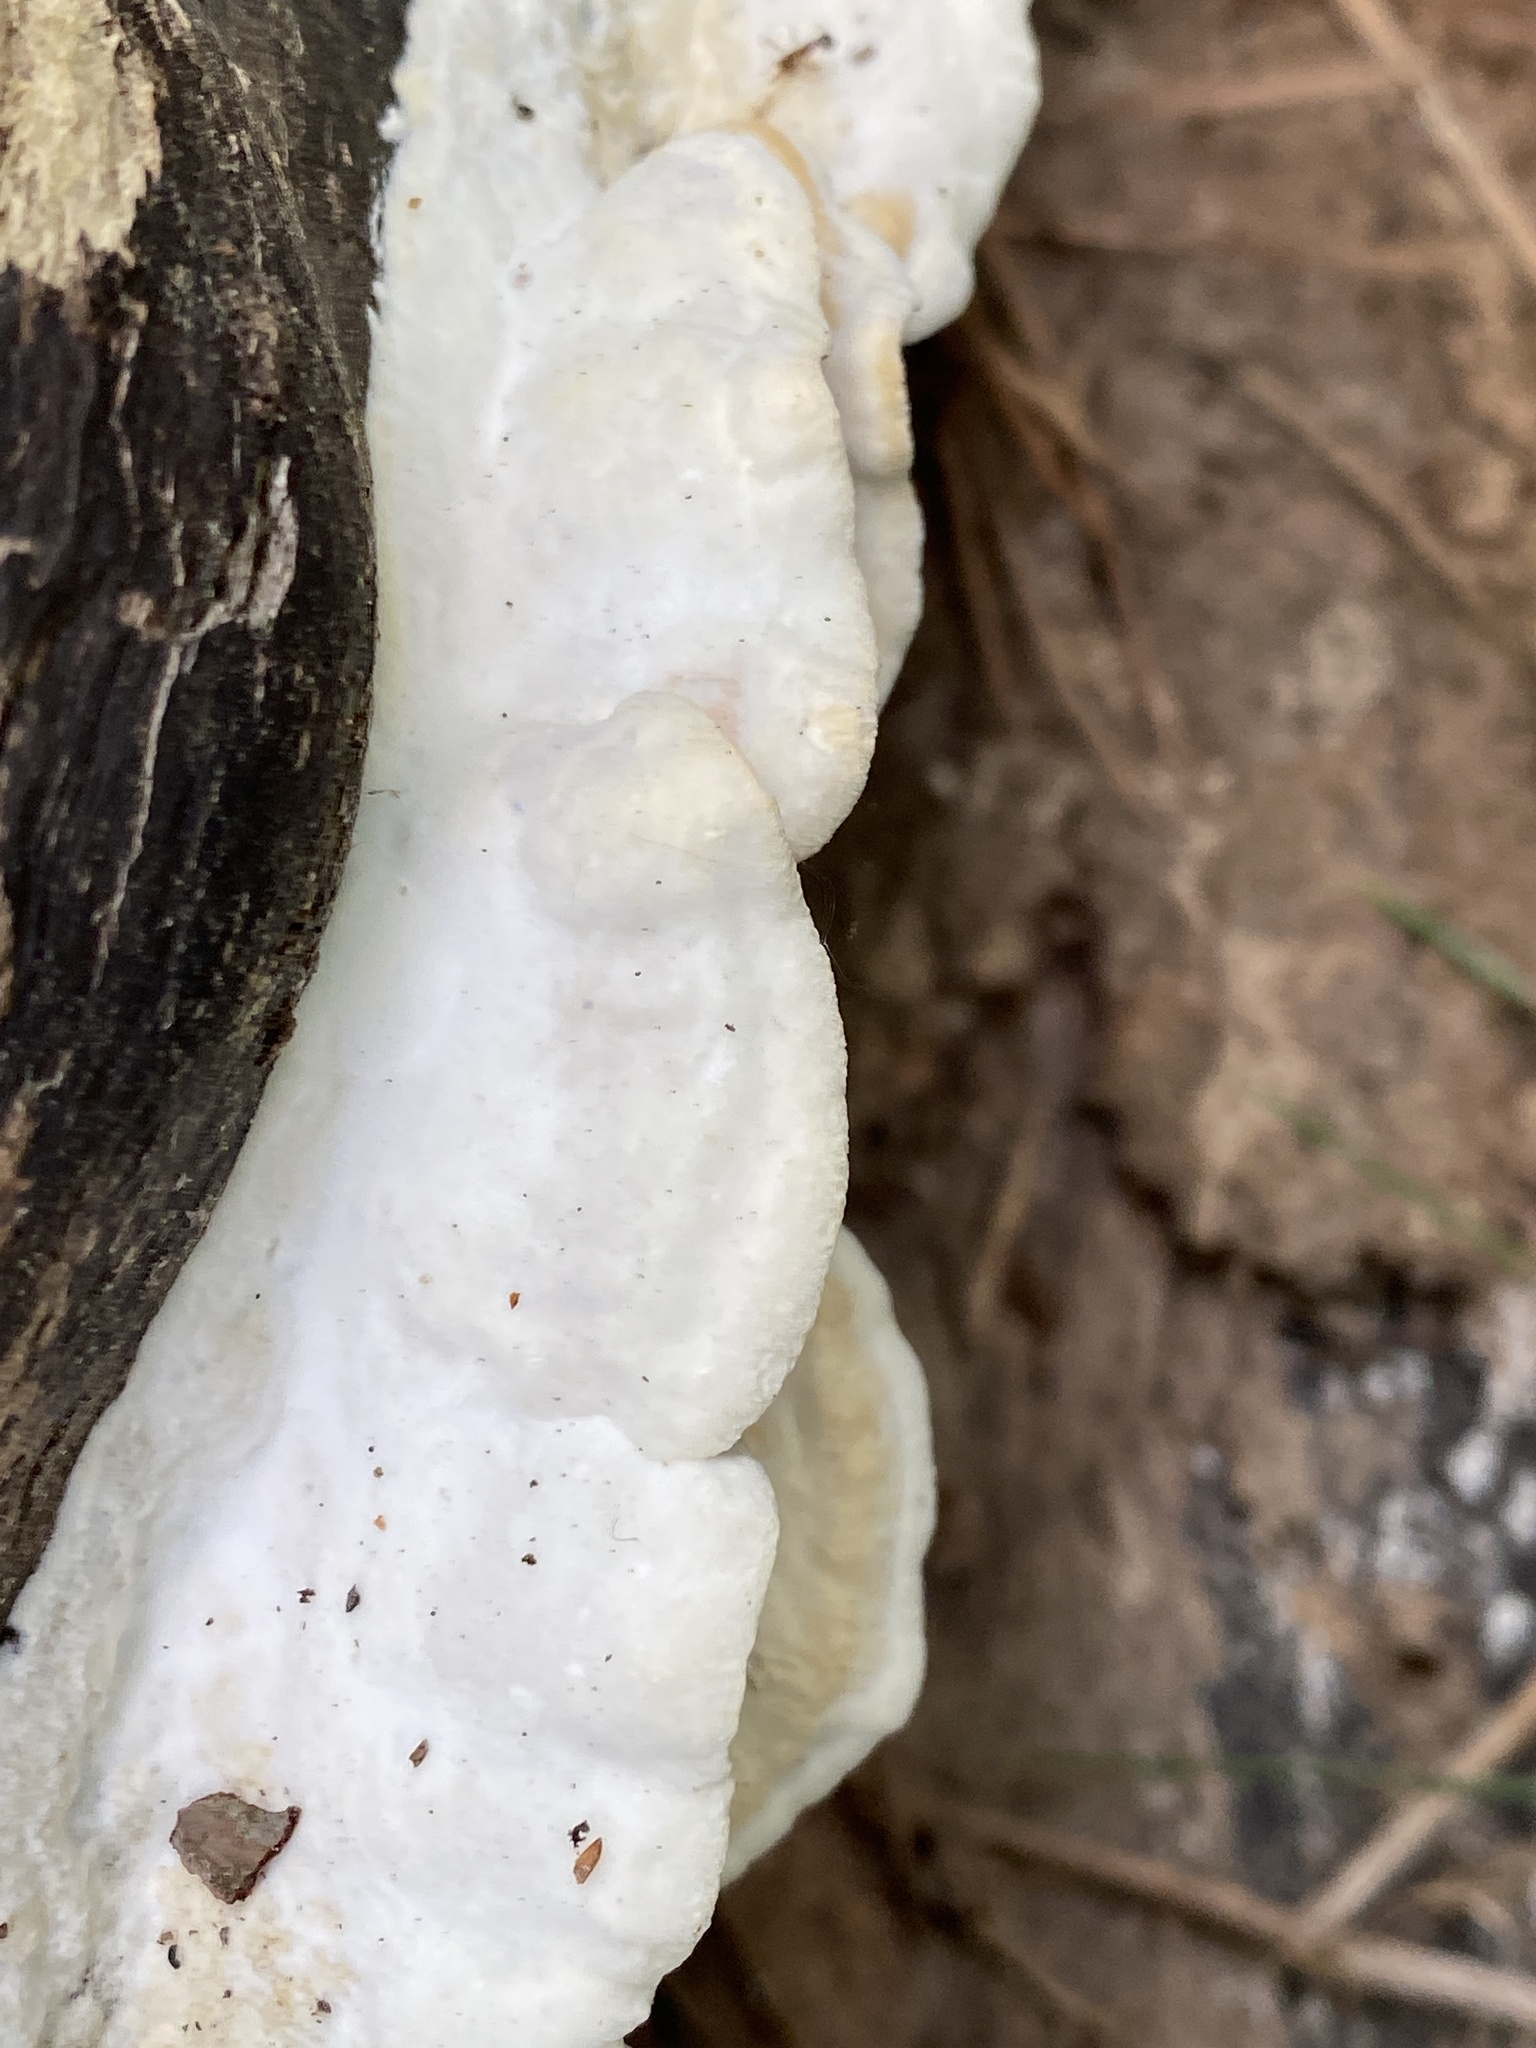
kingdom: Fungi
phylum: Basidiomycota
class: Agaricomycetes
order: Polyporales
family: Irpicaceae
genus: Vitreoporus
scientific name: Vitreoporus dichrous
